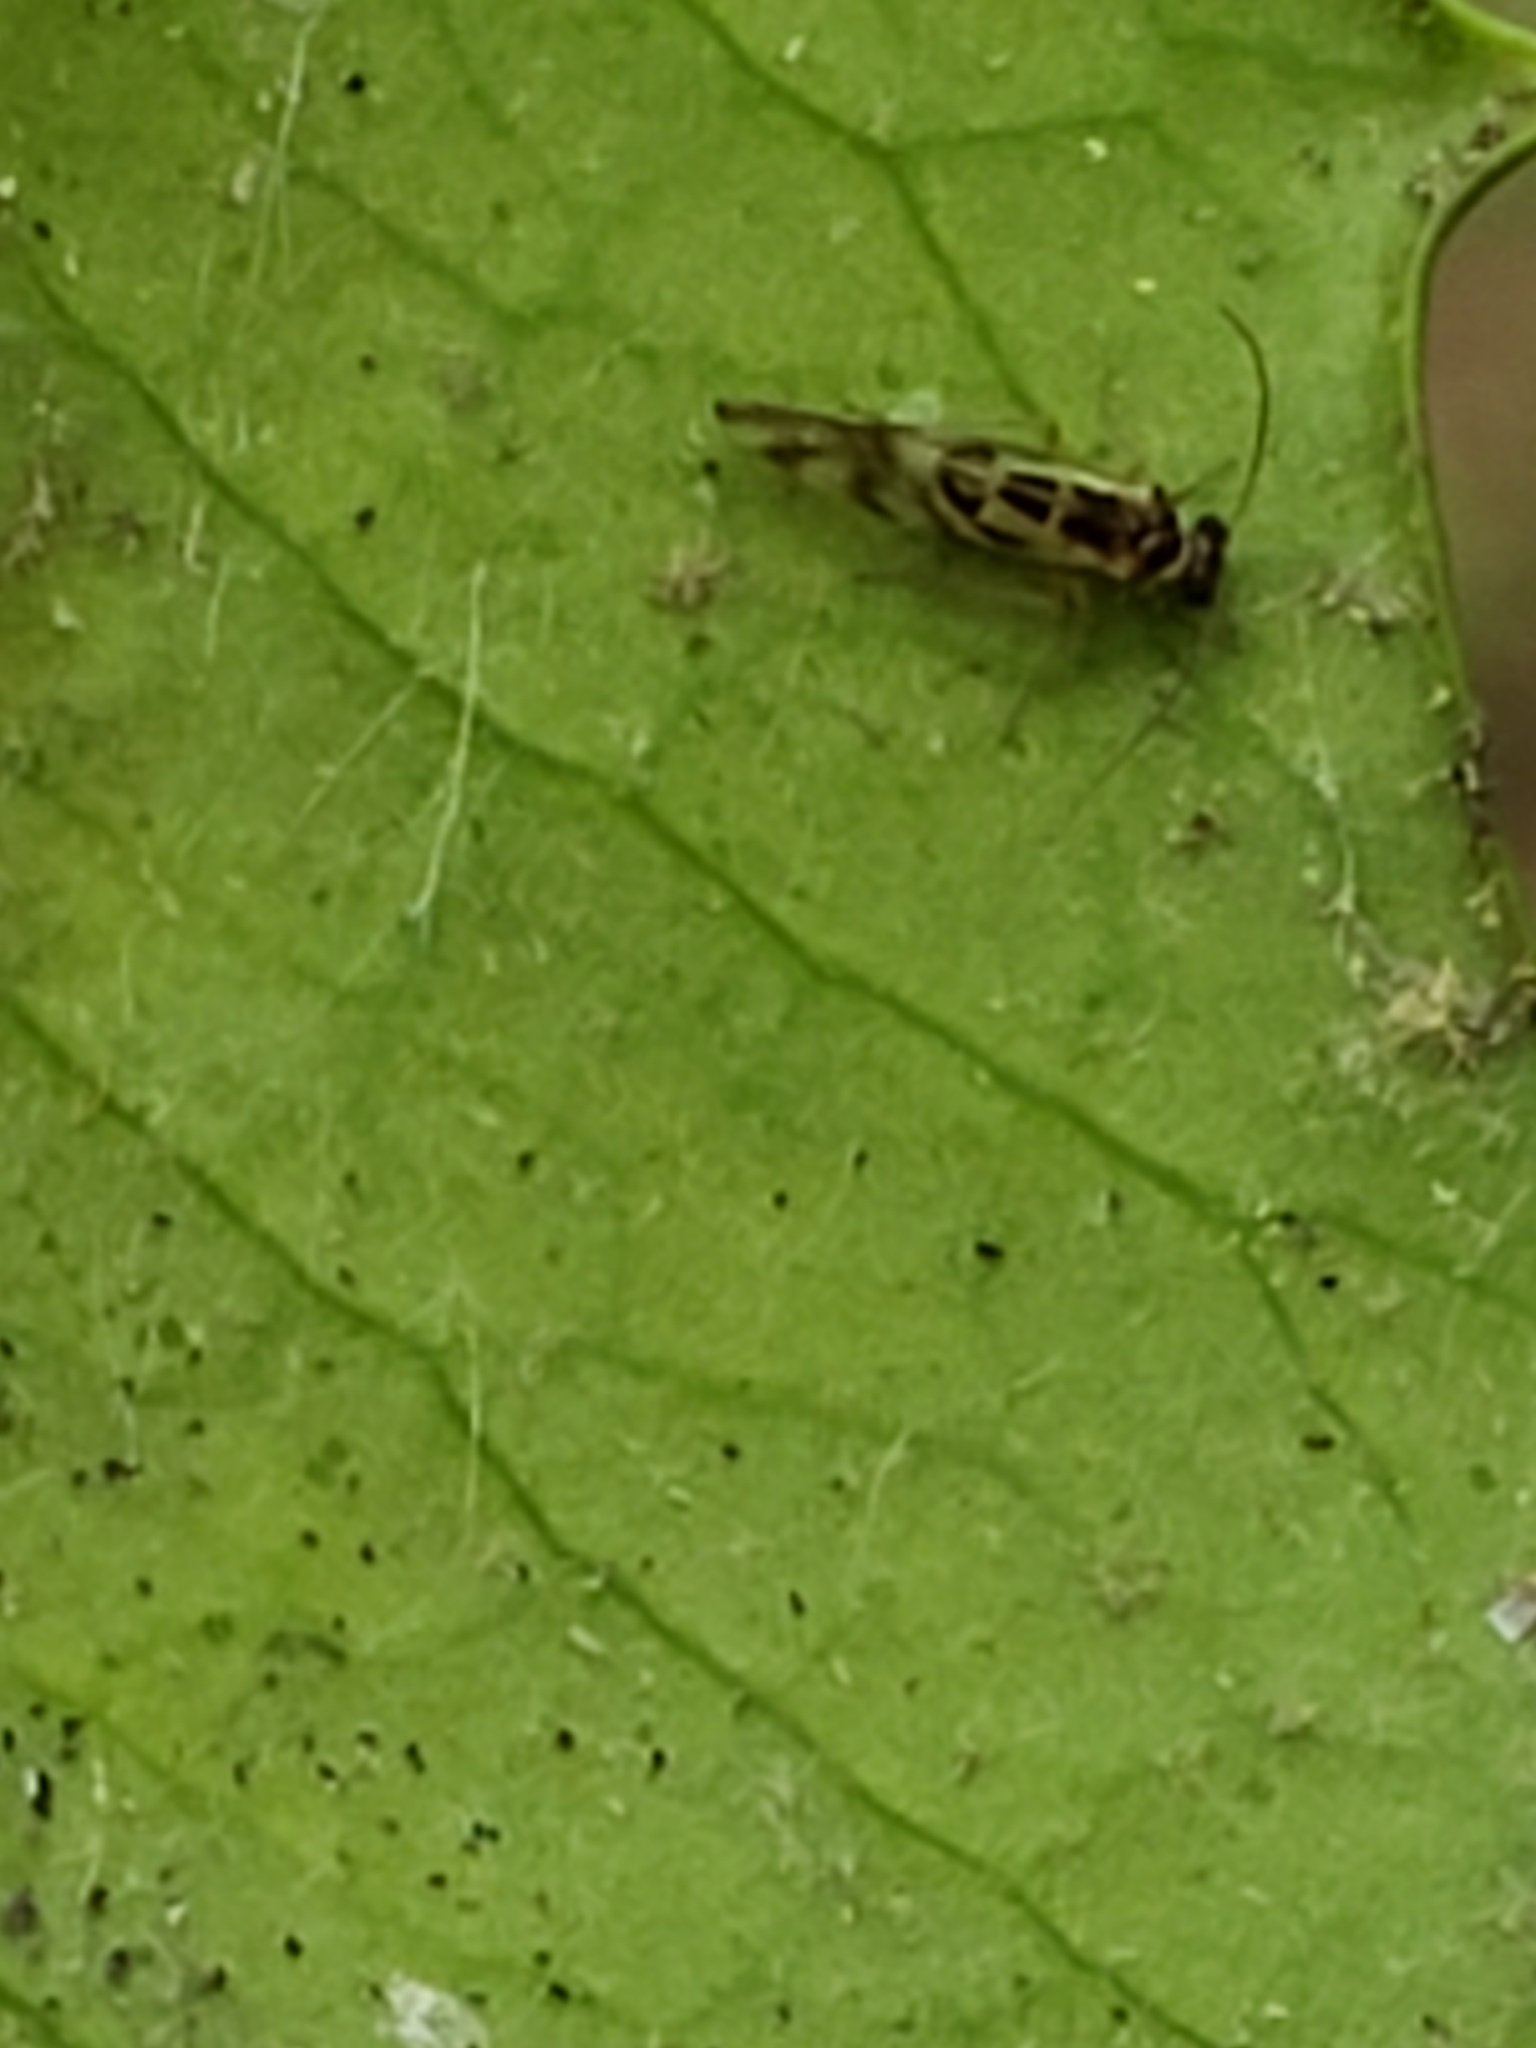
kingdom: Animalia
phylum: Arthropoda
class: Insecta
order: Psocodea
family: Stenopsocidae
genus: Graphopsocus
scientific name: Graphopsocus cruciatus
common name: Lizard bark louse
